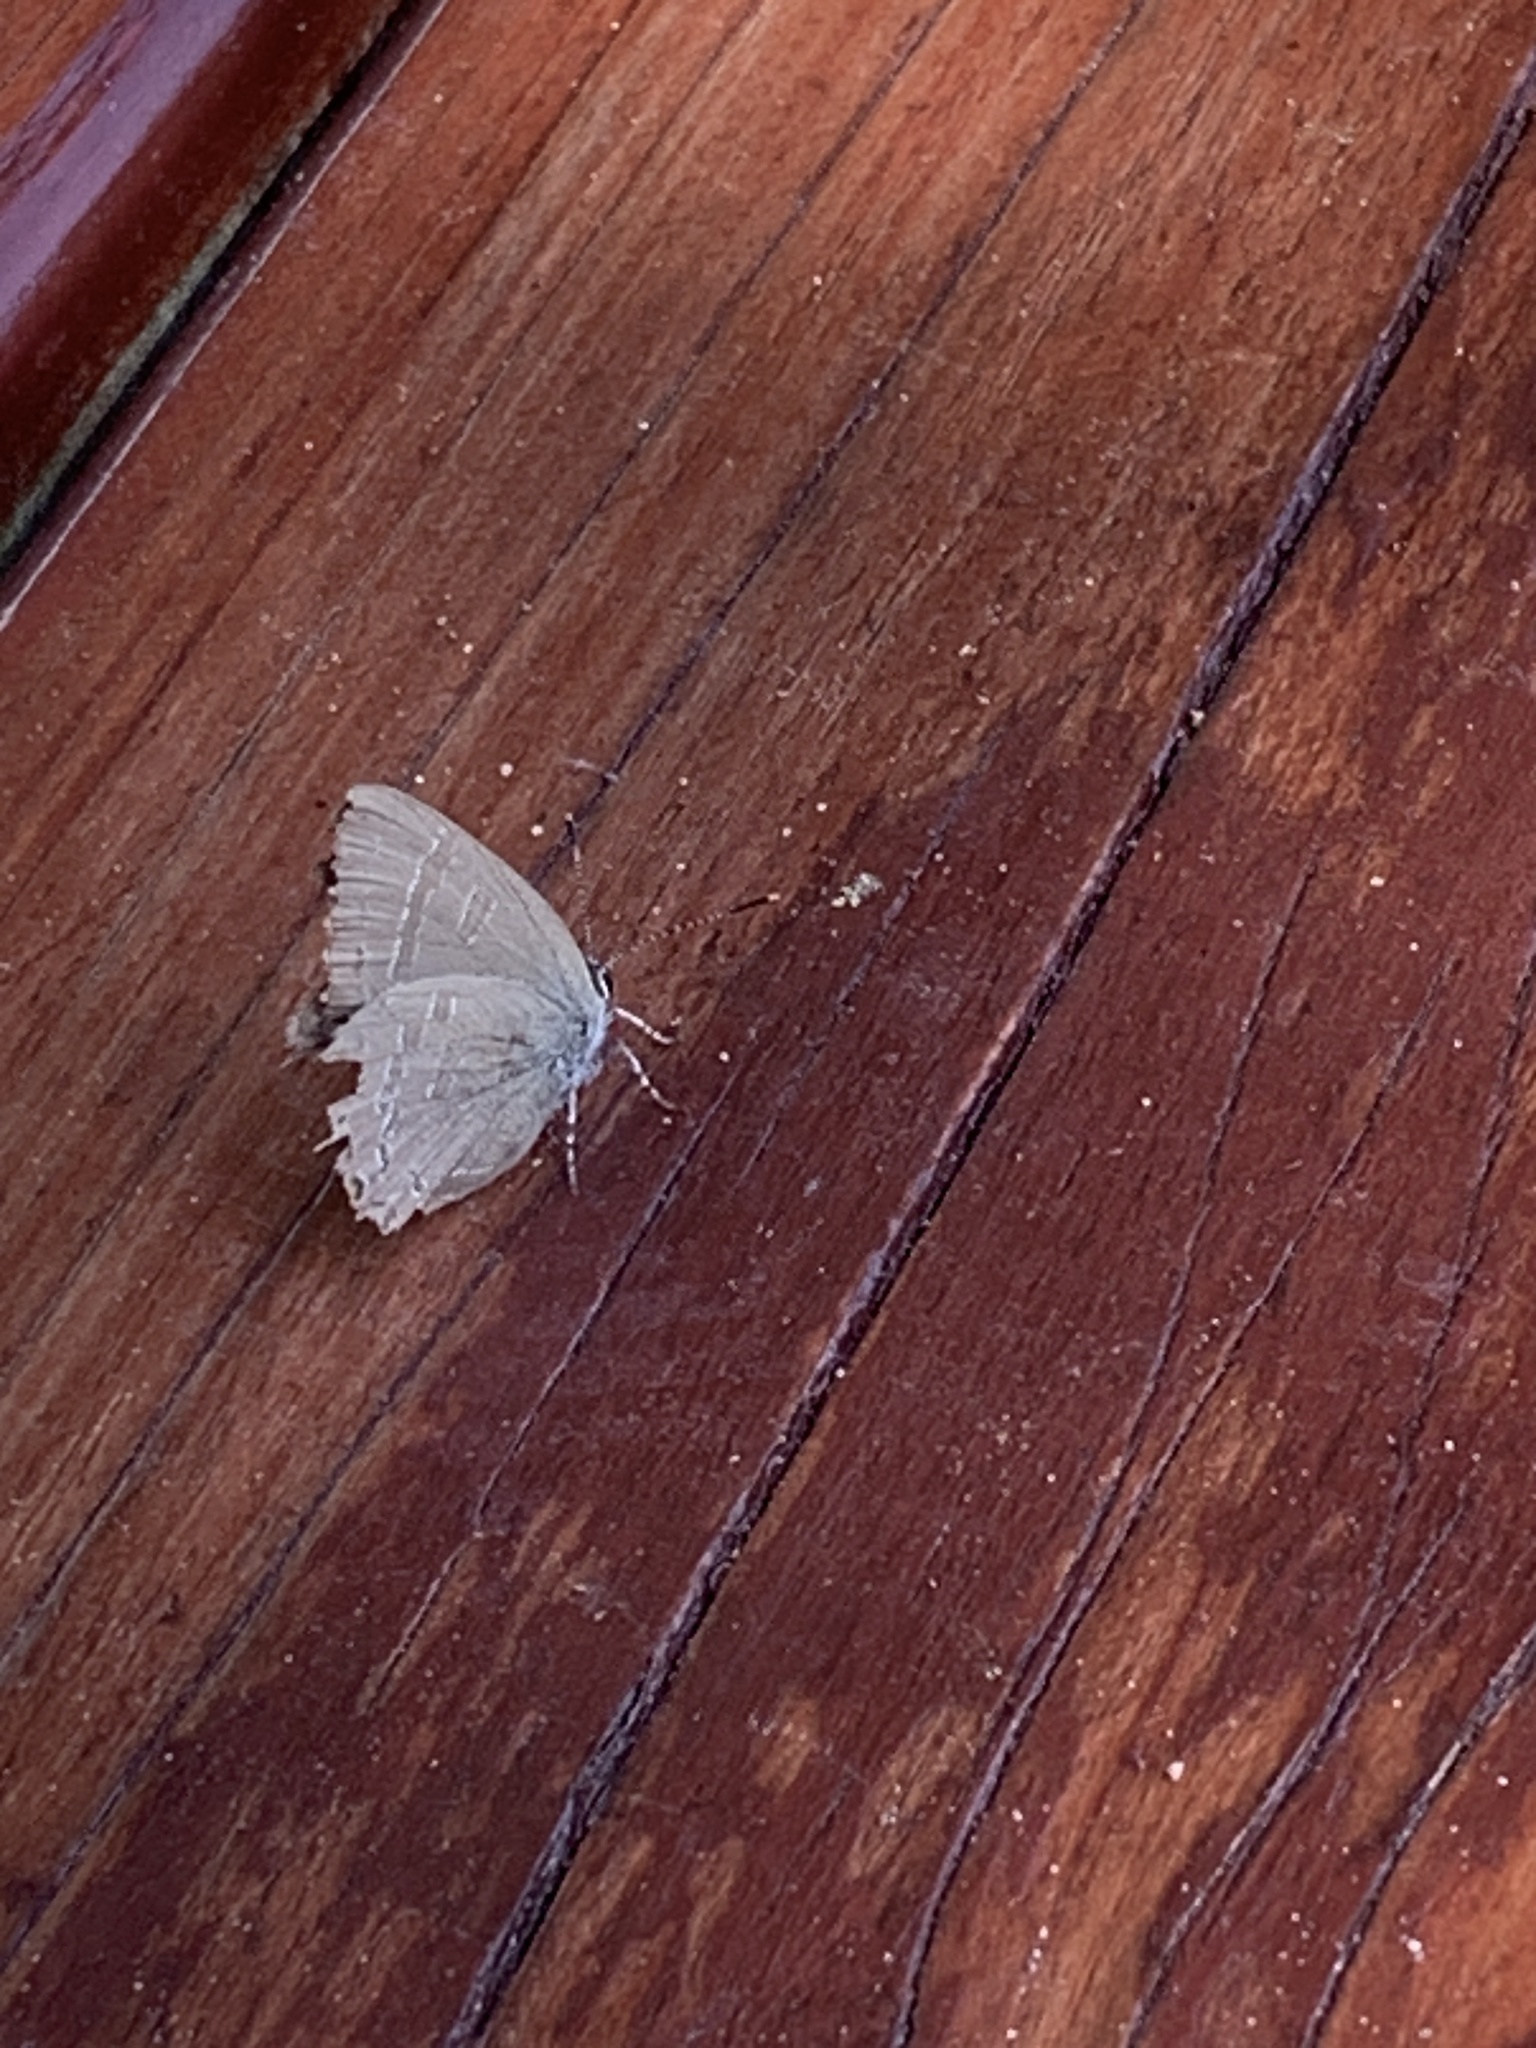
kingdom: Animalia
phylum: Arthropoda
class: Insecta
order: Lepidoptera
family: Lycaenidae
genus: Satyrium
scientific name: Satyrium calanus
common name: Banded hairstreak
